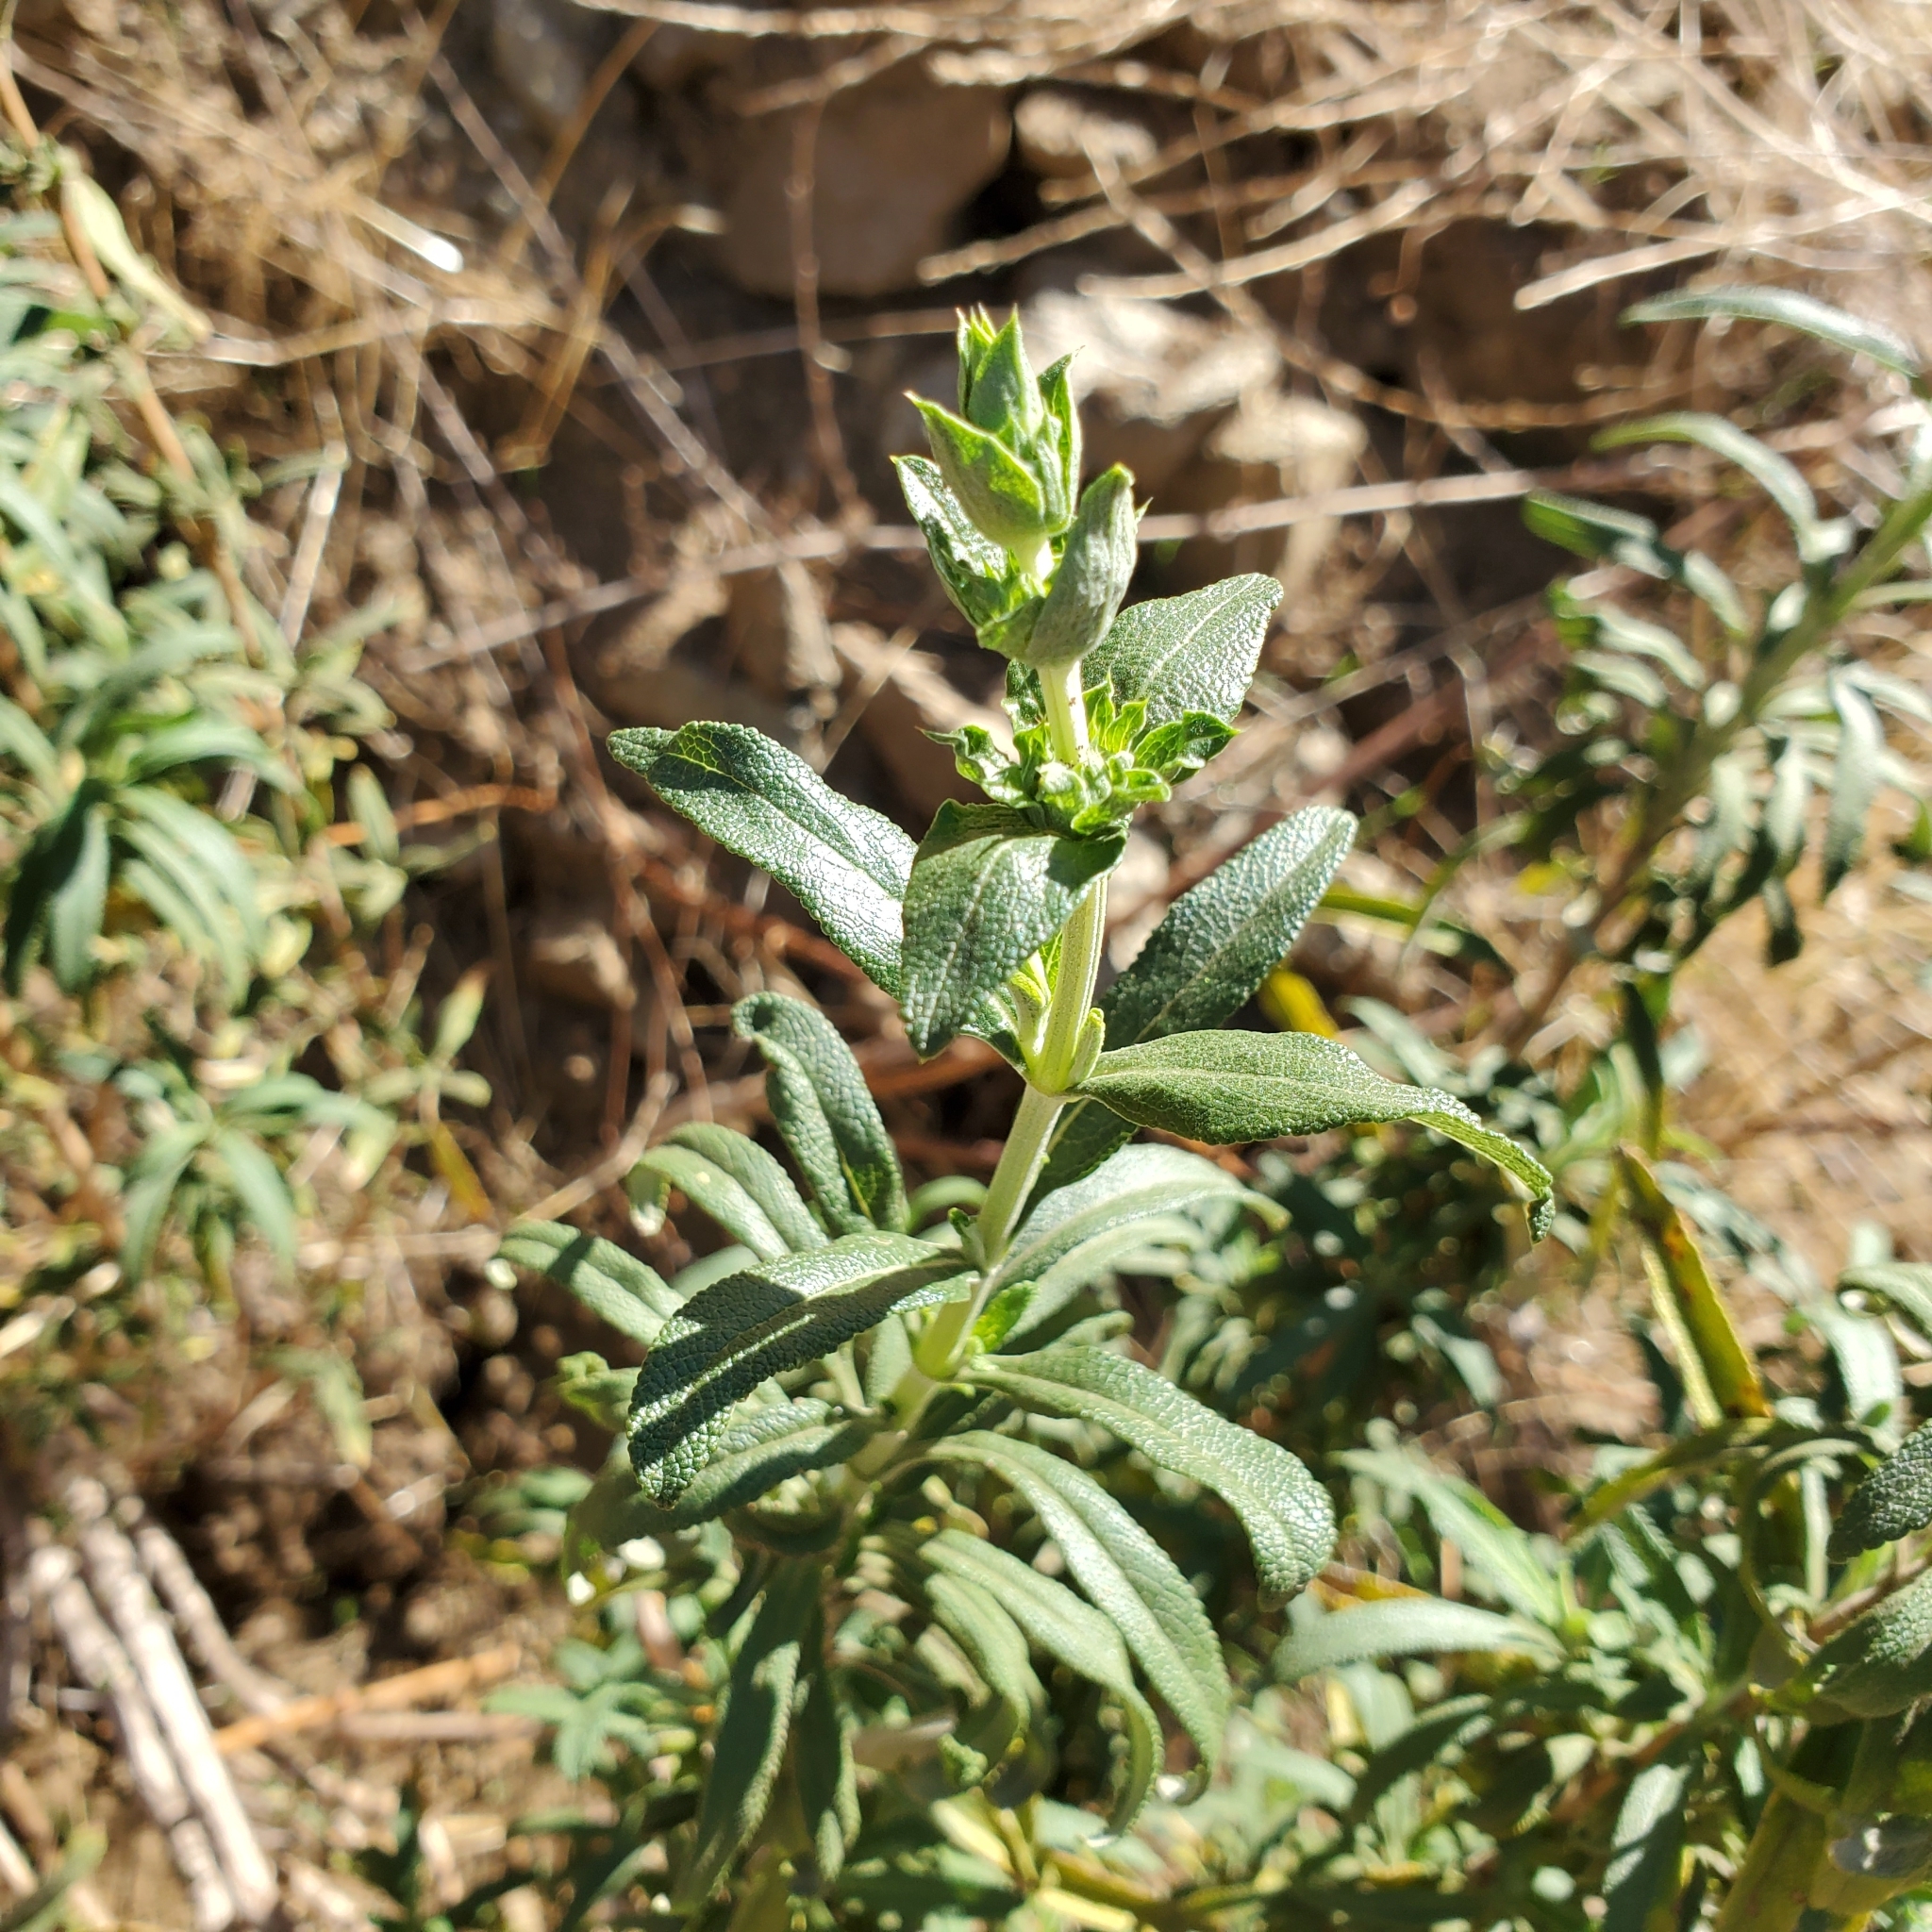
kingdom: Plantae
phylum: Tracheophyta
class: Magnoliopsida
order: Lamiales
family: Lamiaceae
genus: Salvia
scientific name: Salvia mellifera
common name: Black sage
